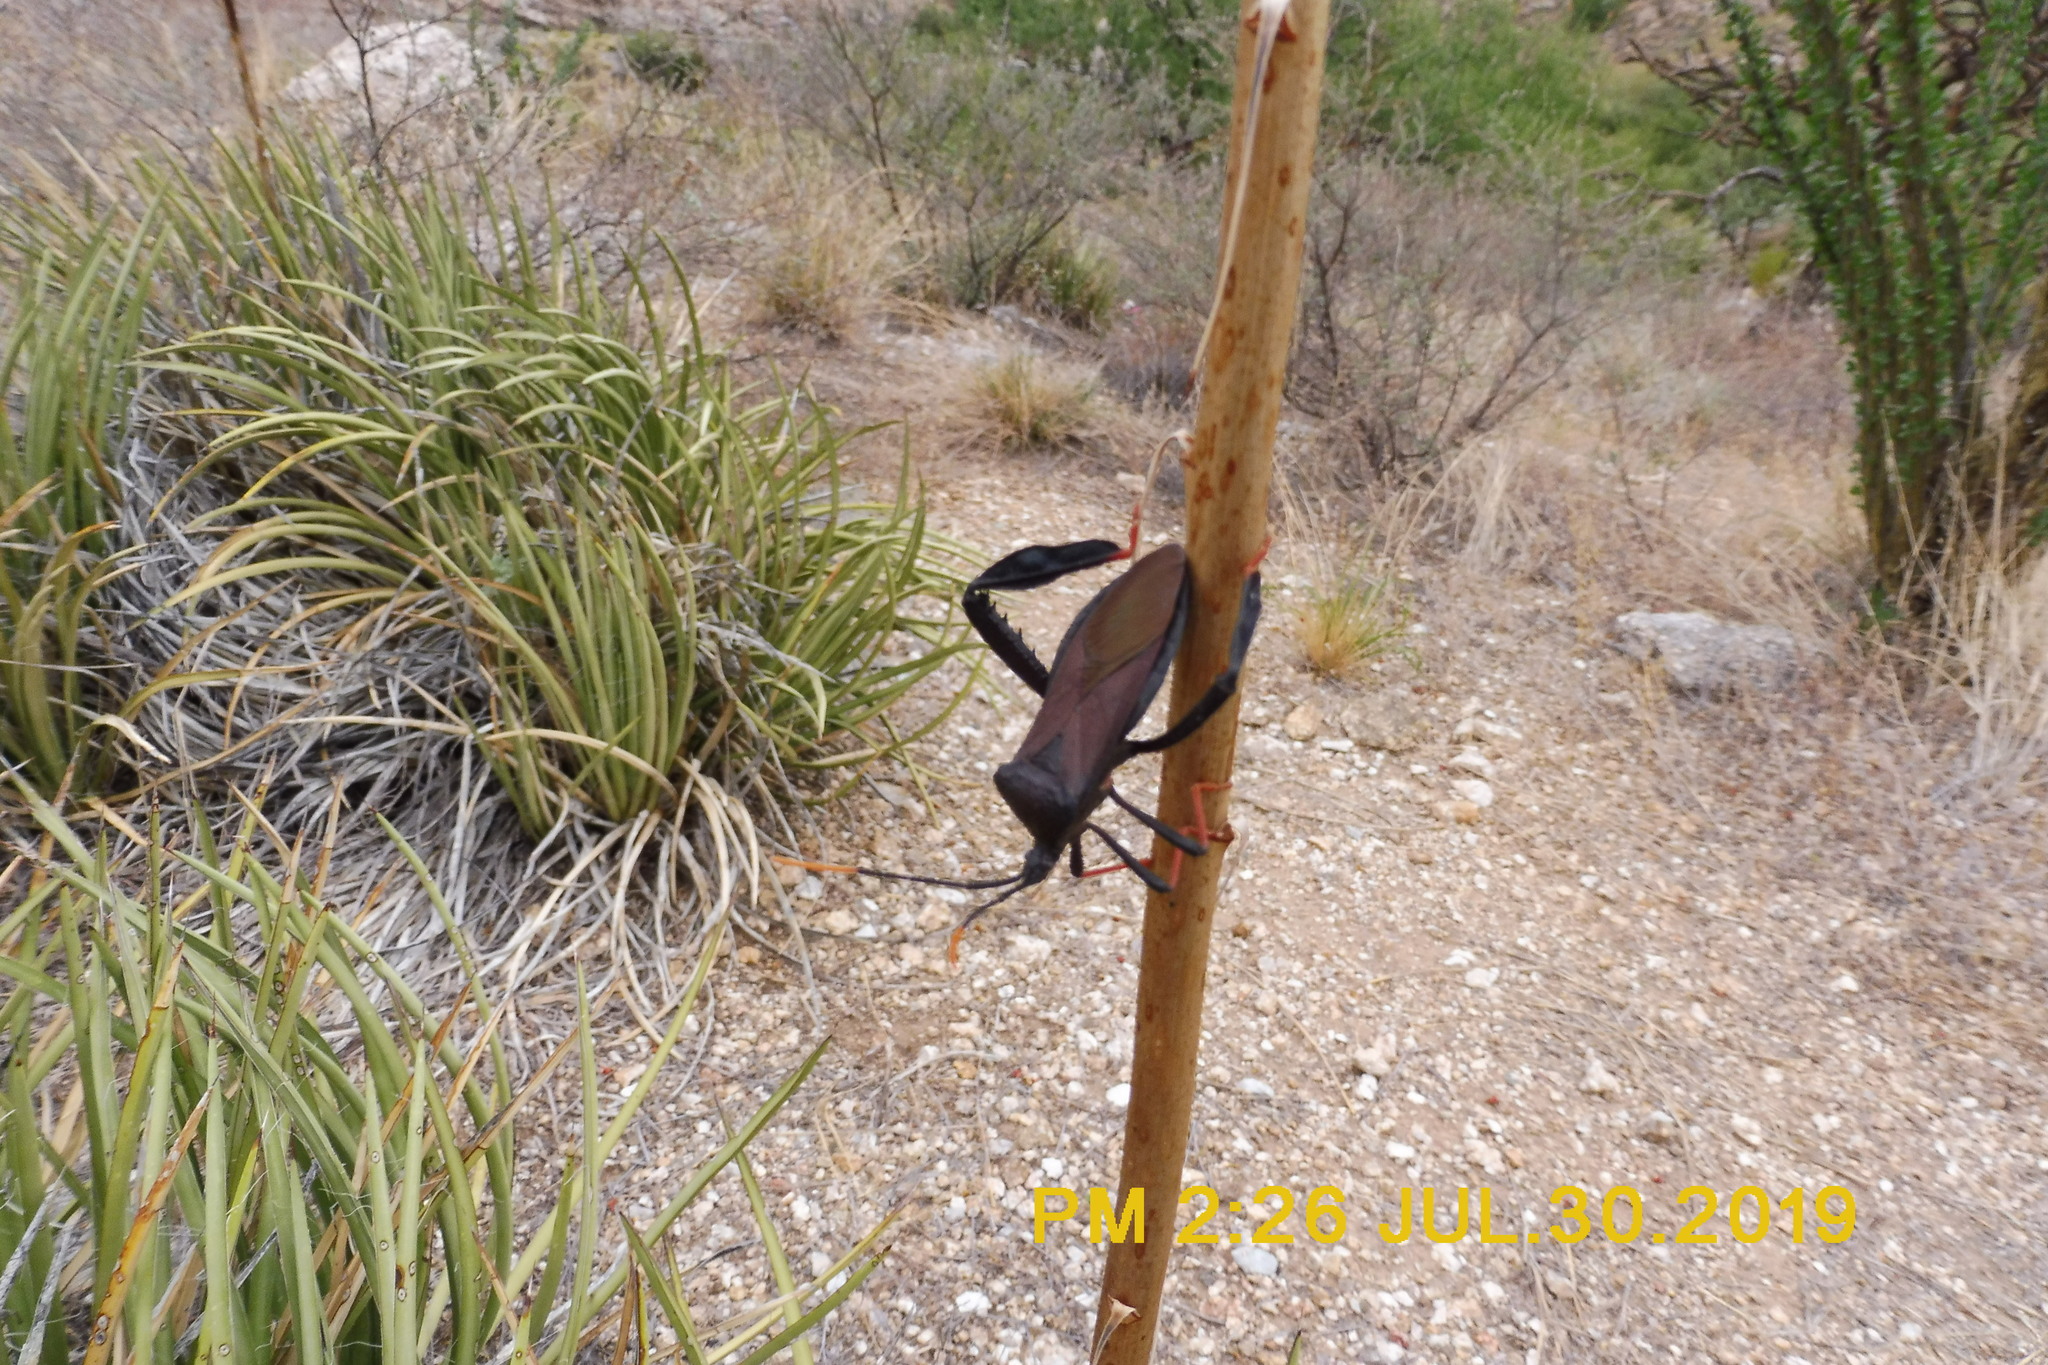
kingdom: Animalia
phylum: Arthropoda
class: Insecta
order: Hemiptera
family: Coreidae
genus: Acanthocephala
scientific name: Acanthocephala thomasi
